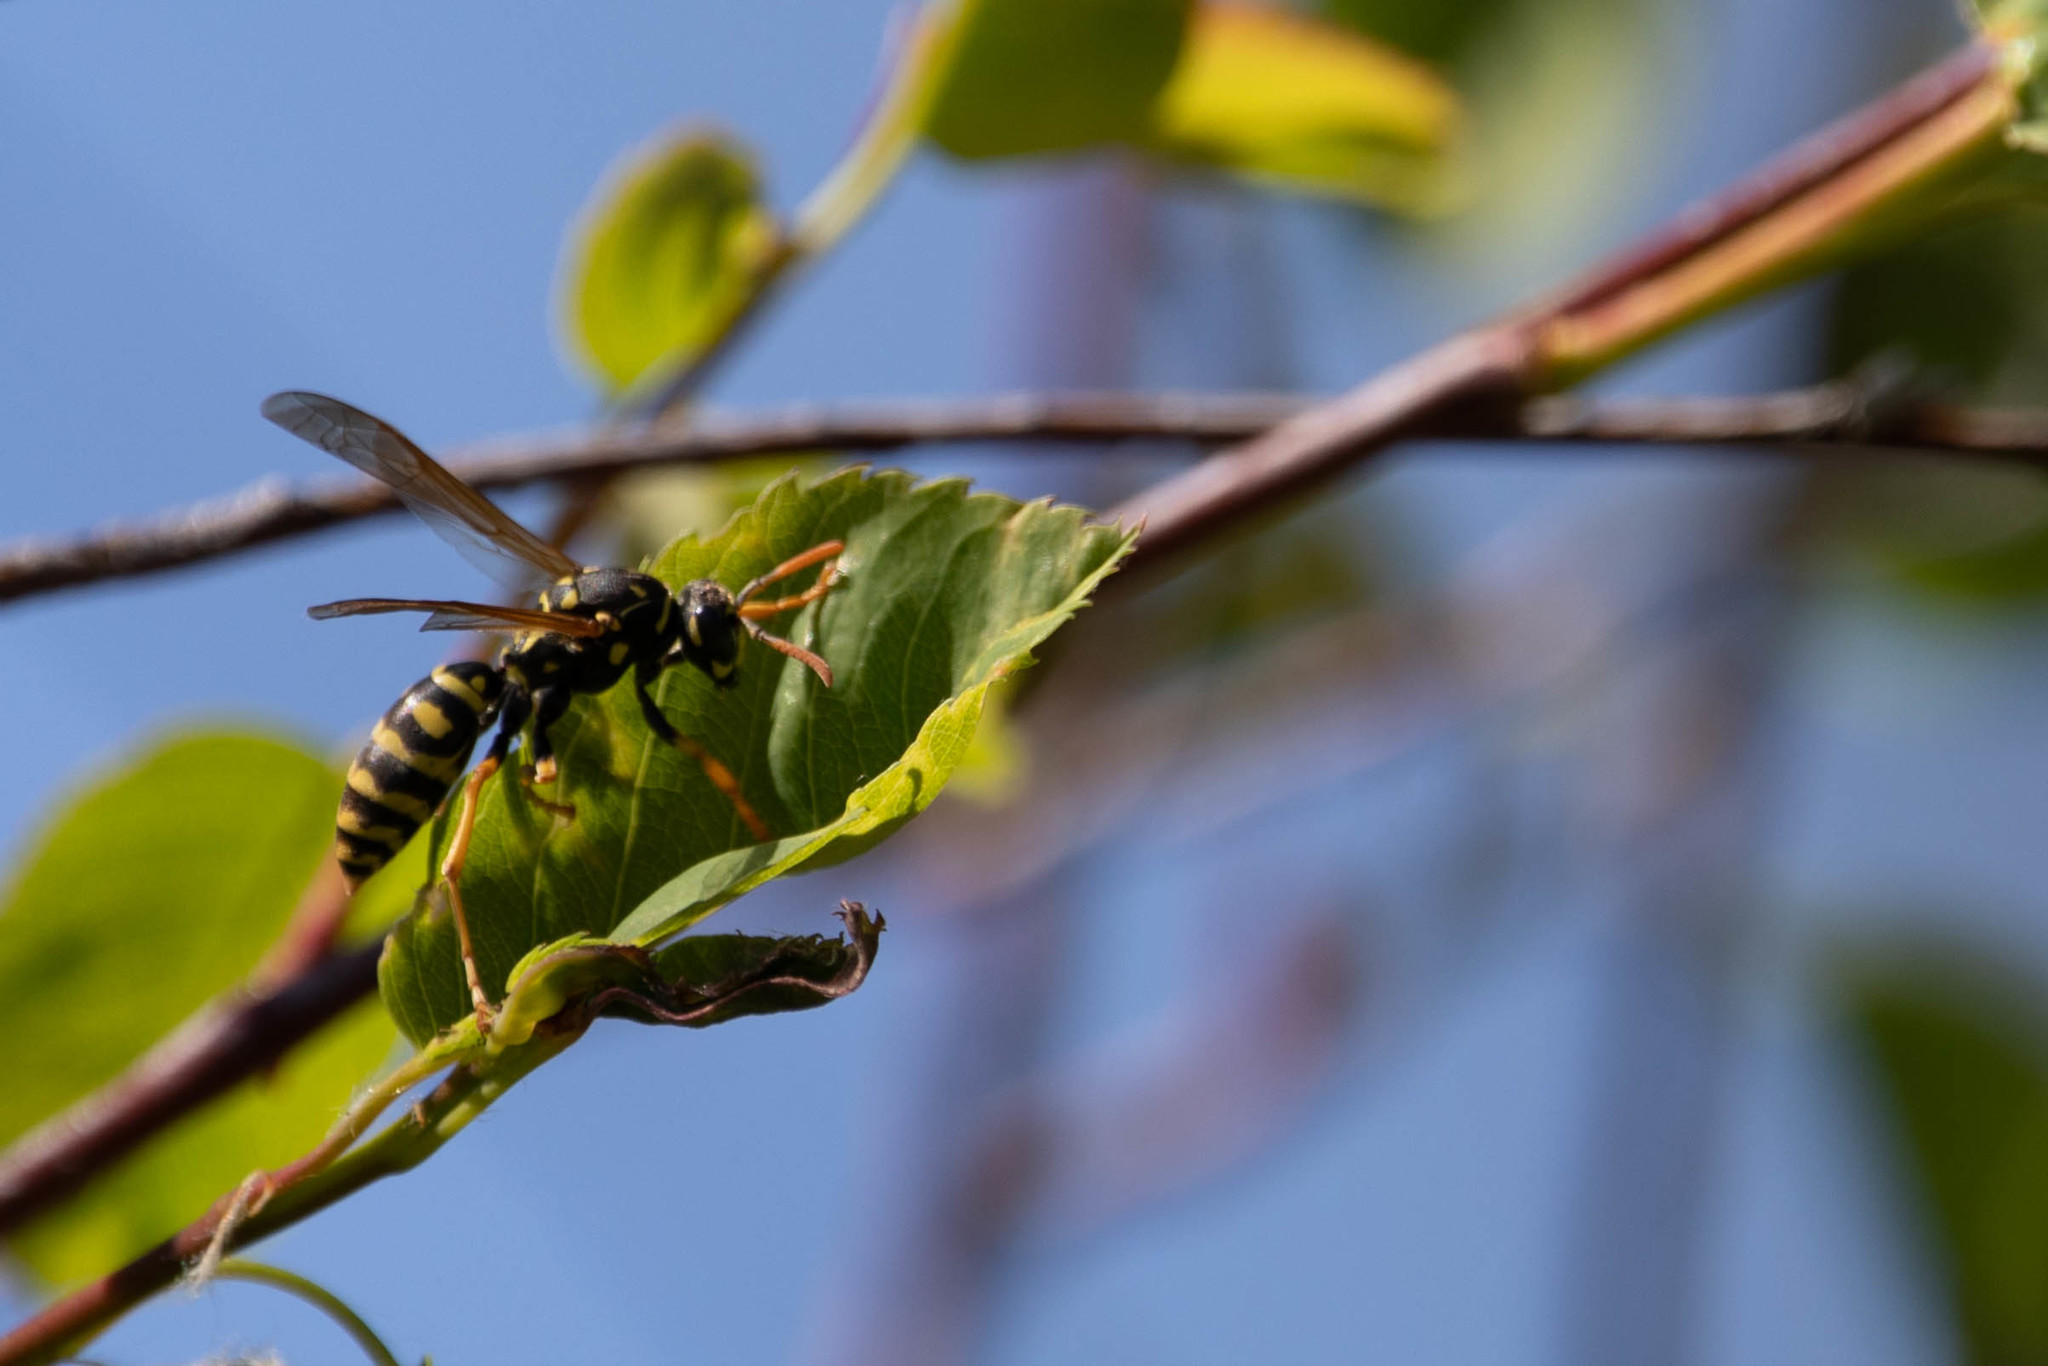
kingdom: Animalia
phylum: Arthropoda
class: Insecta
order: Hymenoptera
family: Eumenidae
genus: Polistes
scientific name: Polistes dominula
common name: Paper wasp
